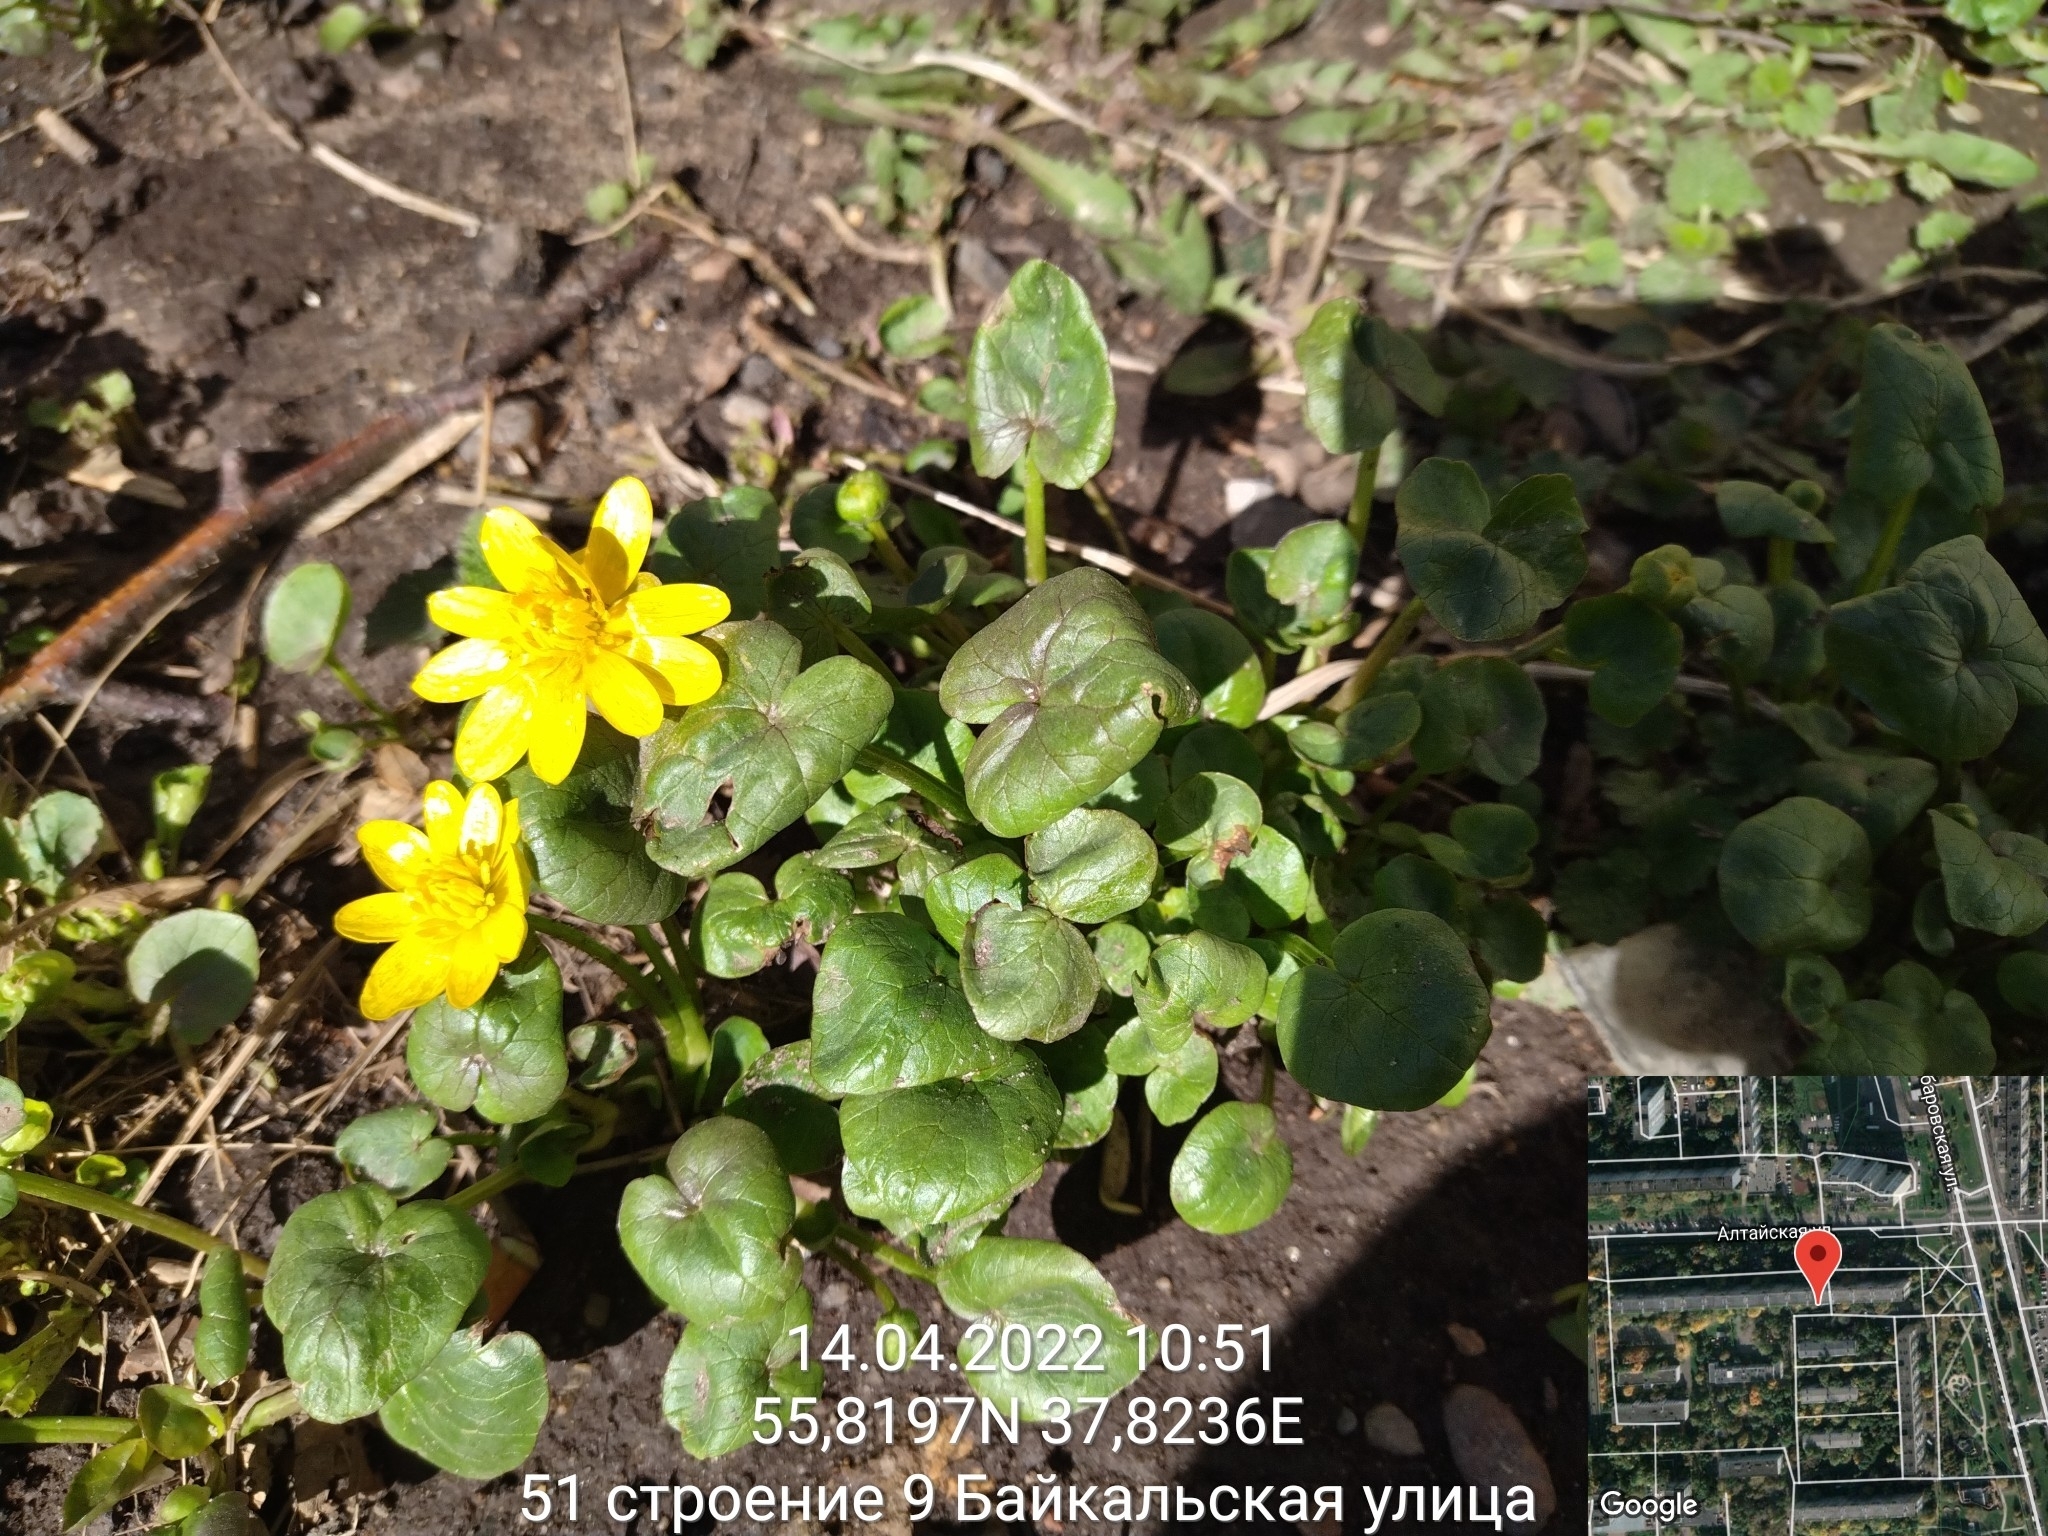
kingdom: Plantae
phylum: Tracheophyta
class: Magnoliopsida
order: Ranunculales
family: Ranunculaceae
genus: Ficaria
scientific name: Ficaria verna
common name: Lesser celandine
